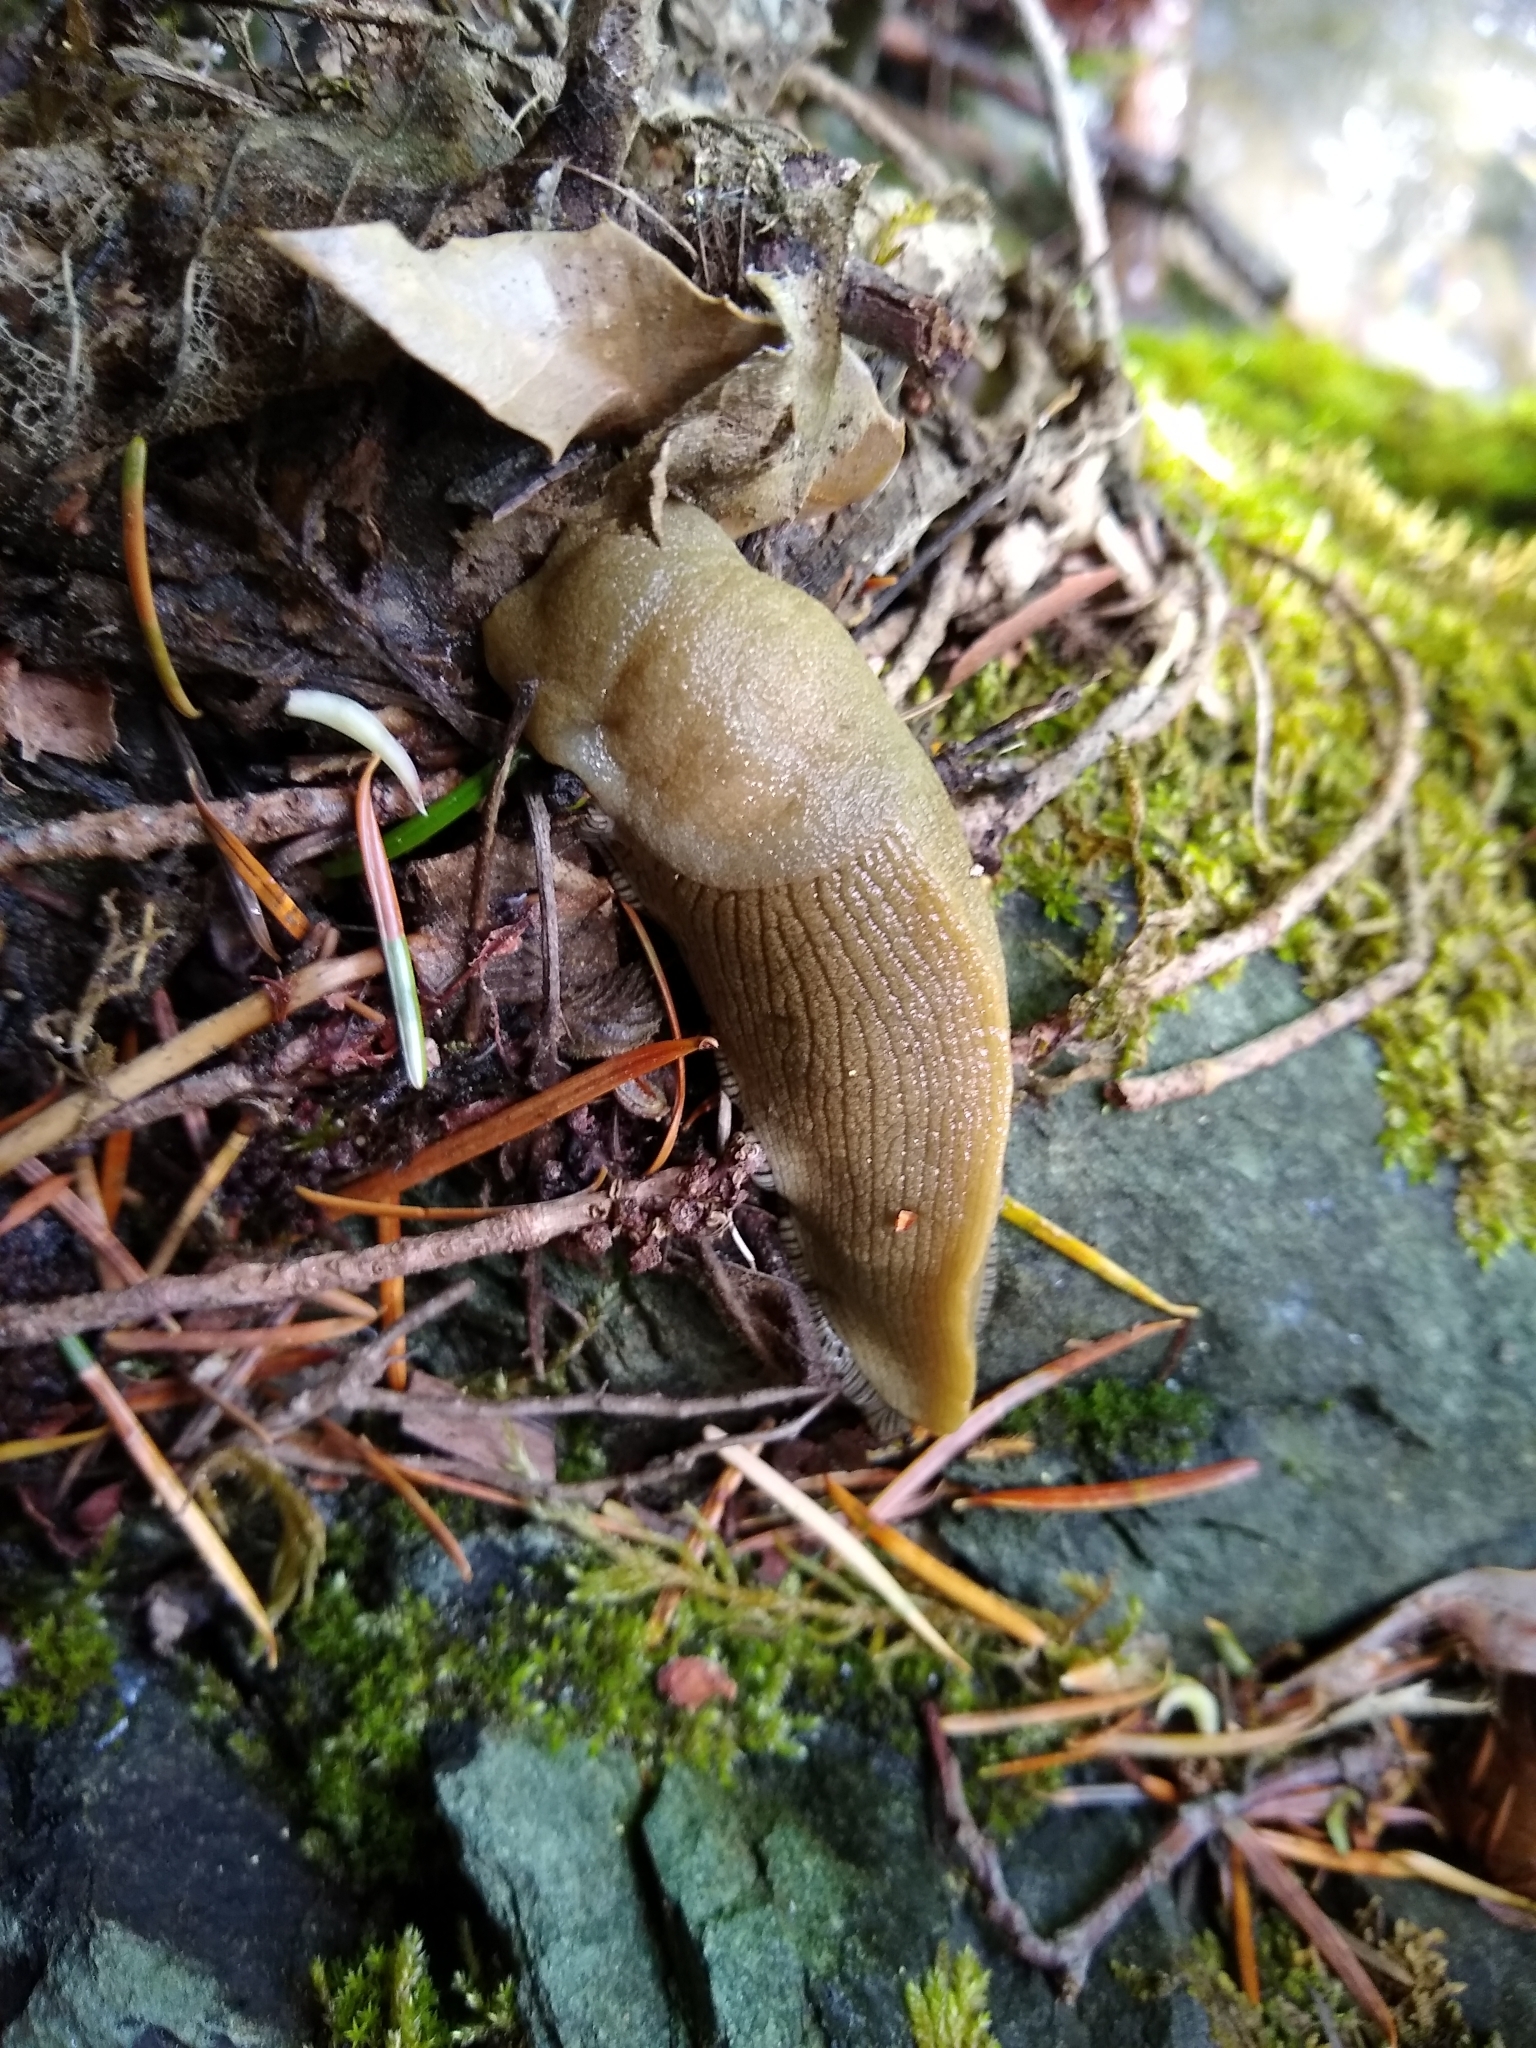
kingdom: Animalia
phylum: Mollusca
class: Gastropoda
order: Stylommatophora
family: Ariolimacidae
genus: Ariolimax
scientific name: Ariolimax buttoni
